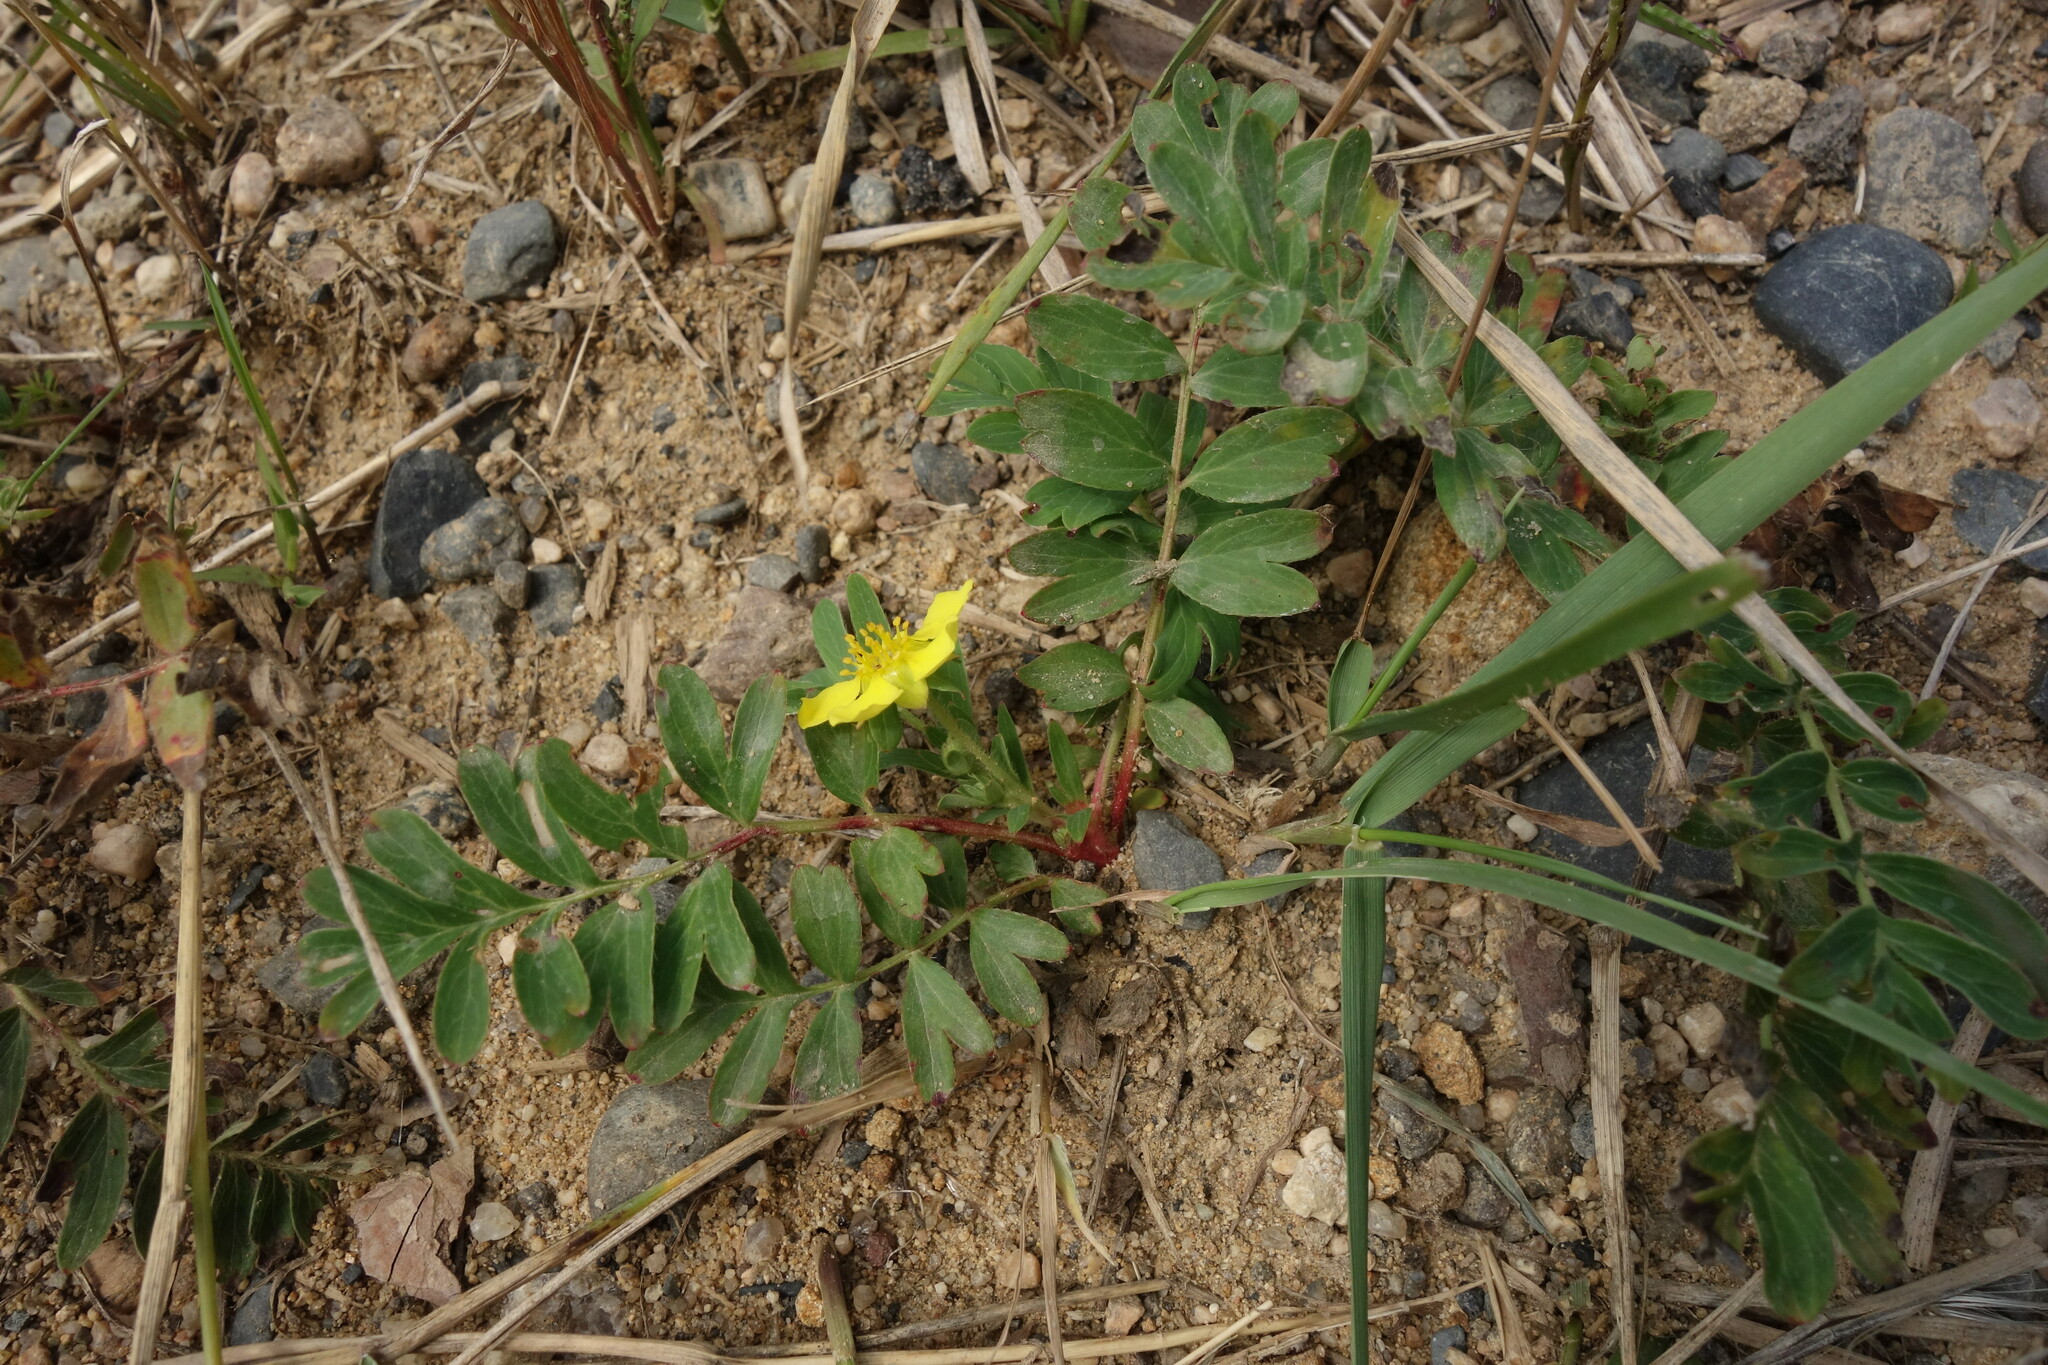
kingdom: Plantae
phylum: Tracheophyta
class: Magnoliopsida
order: Rosales
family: Rosaceae
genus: Sibbaldianthe
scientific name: Sibbaldianthe bifurca
